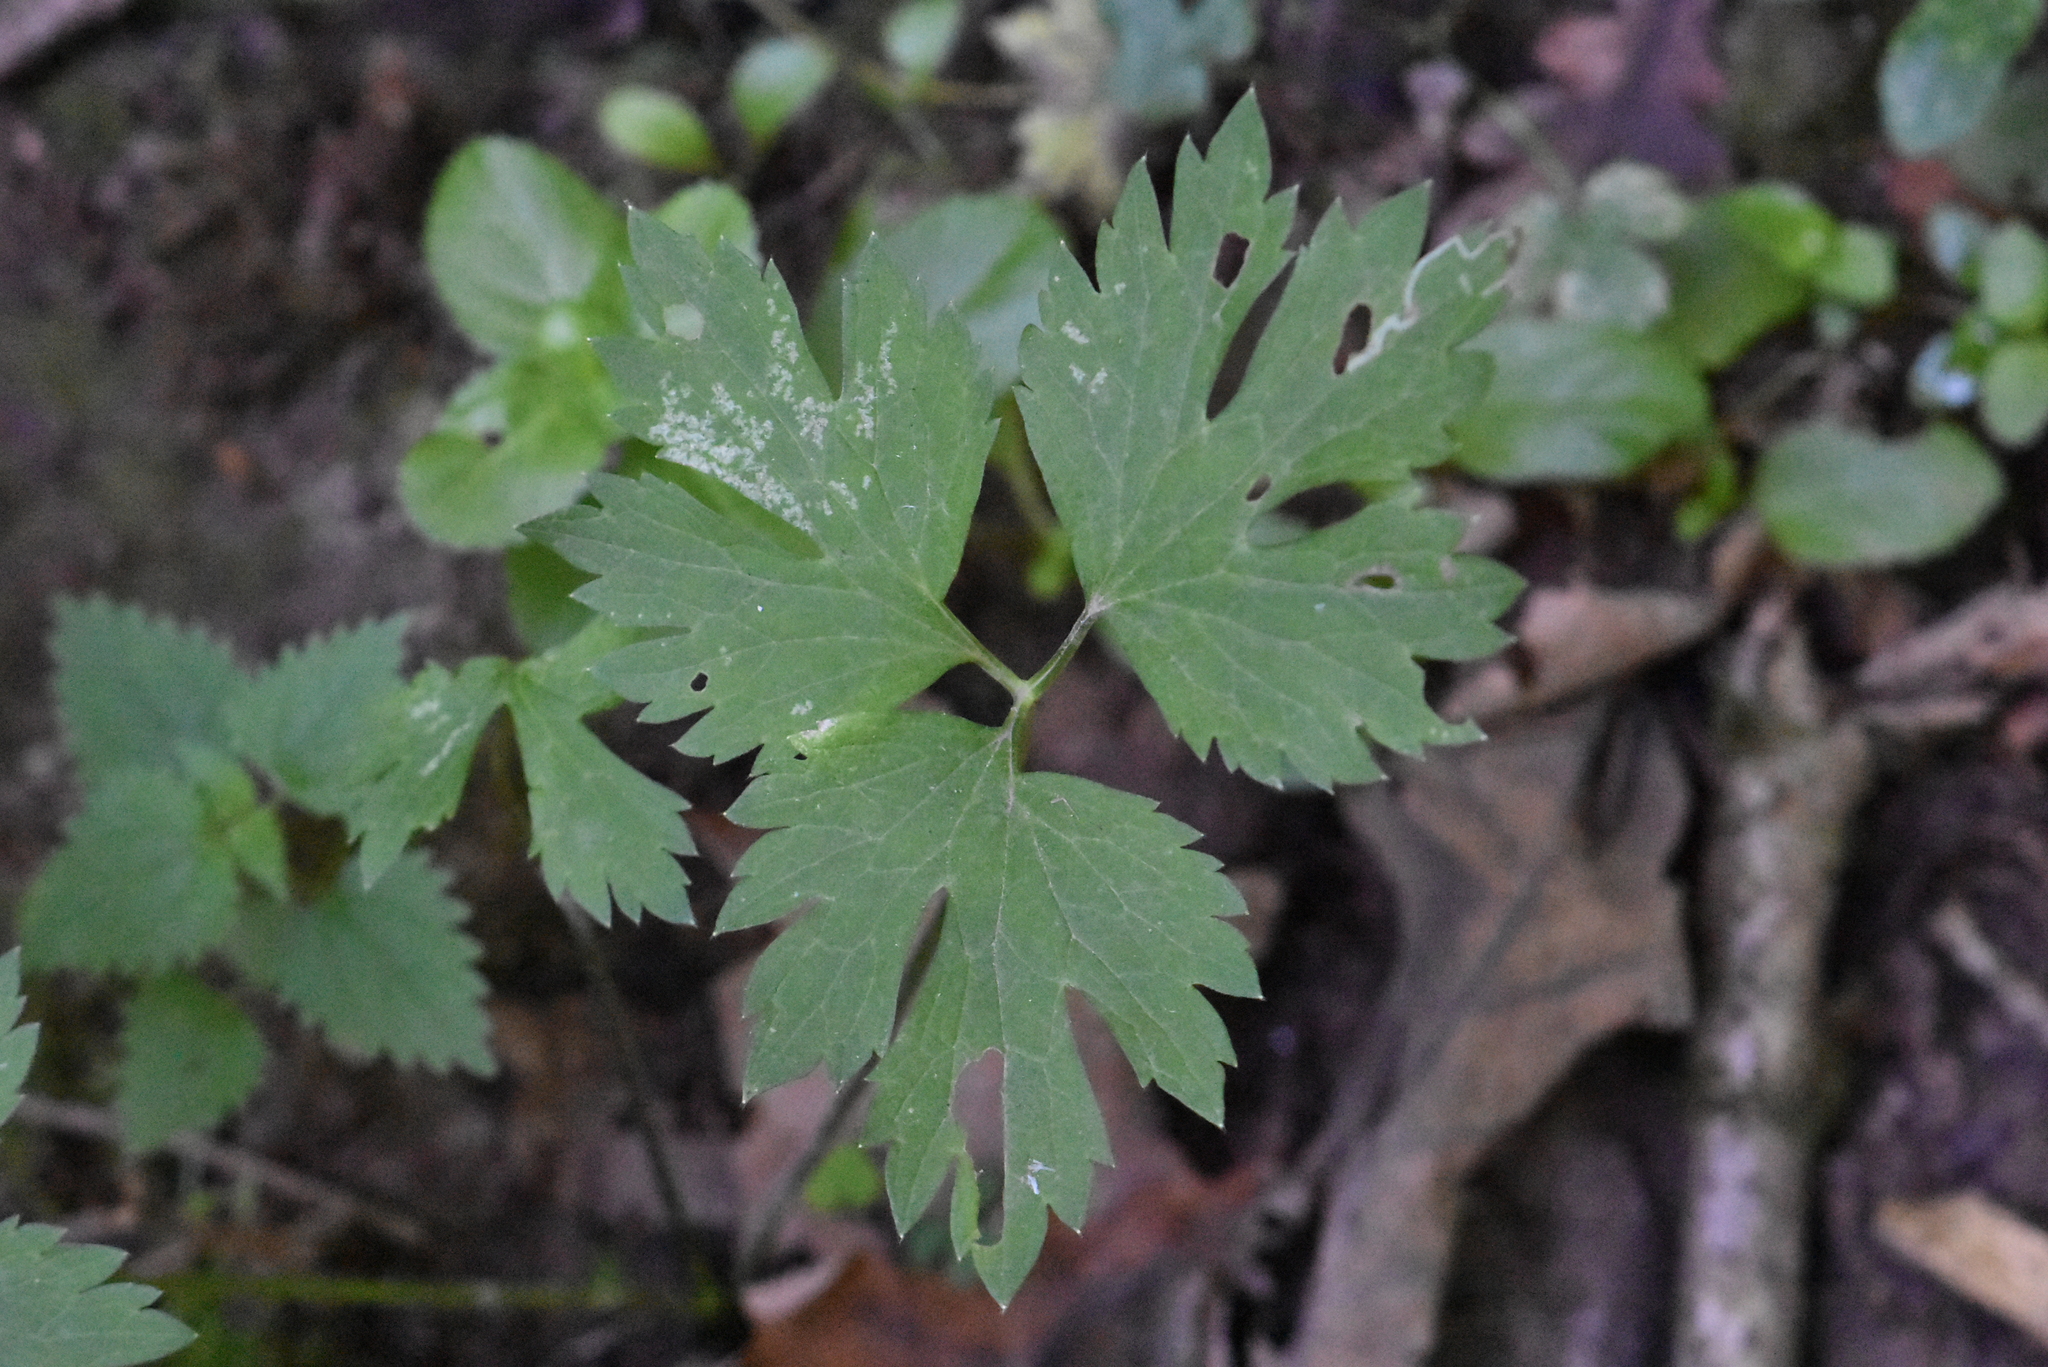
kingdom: Plantae
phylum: Tracheophyta
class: Magnoliopsida
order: Ranunculales
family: Ranunculaceae
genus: Ranunculus
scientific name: Ranunculus repens
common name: Creeping buttercup
